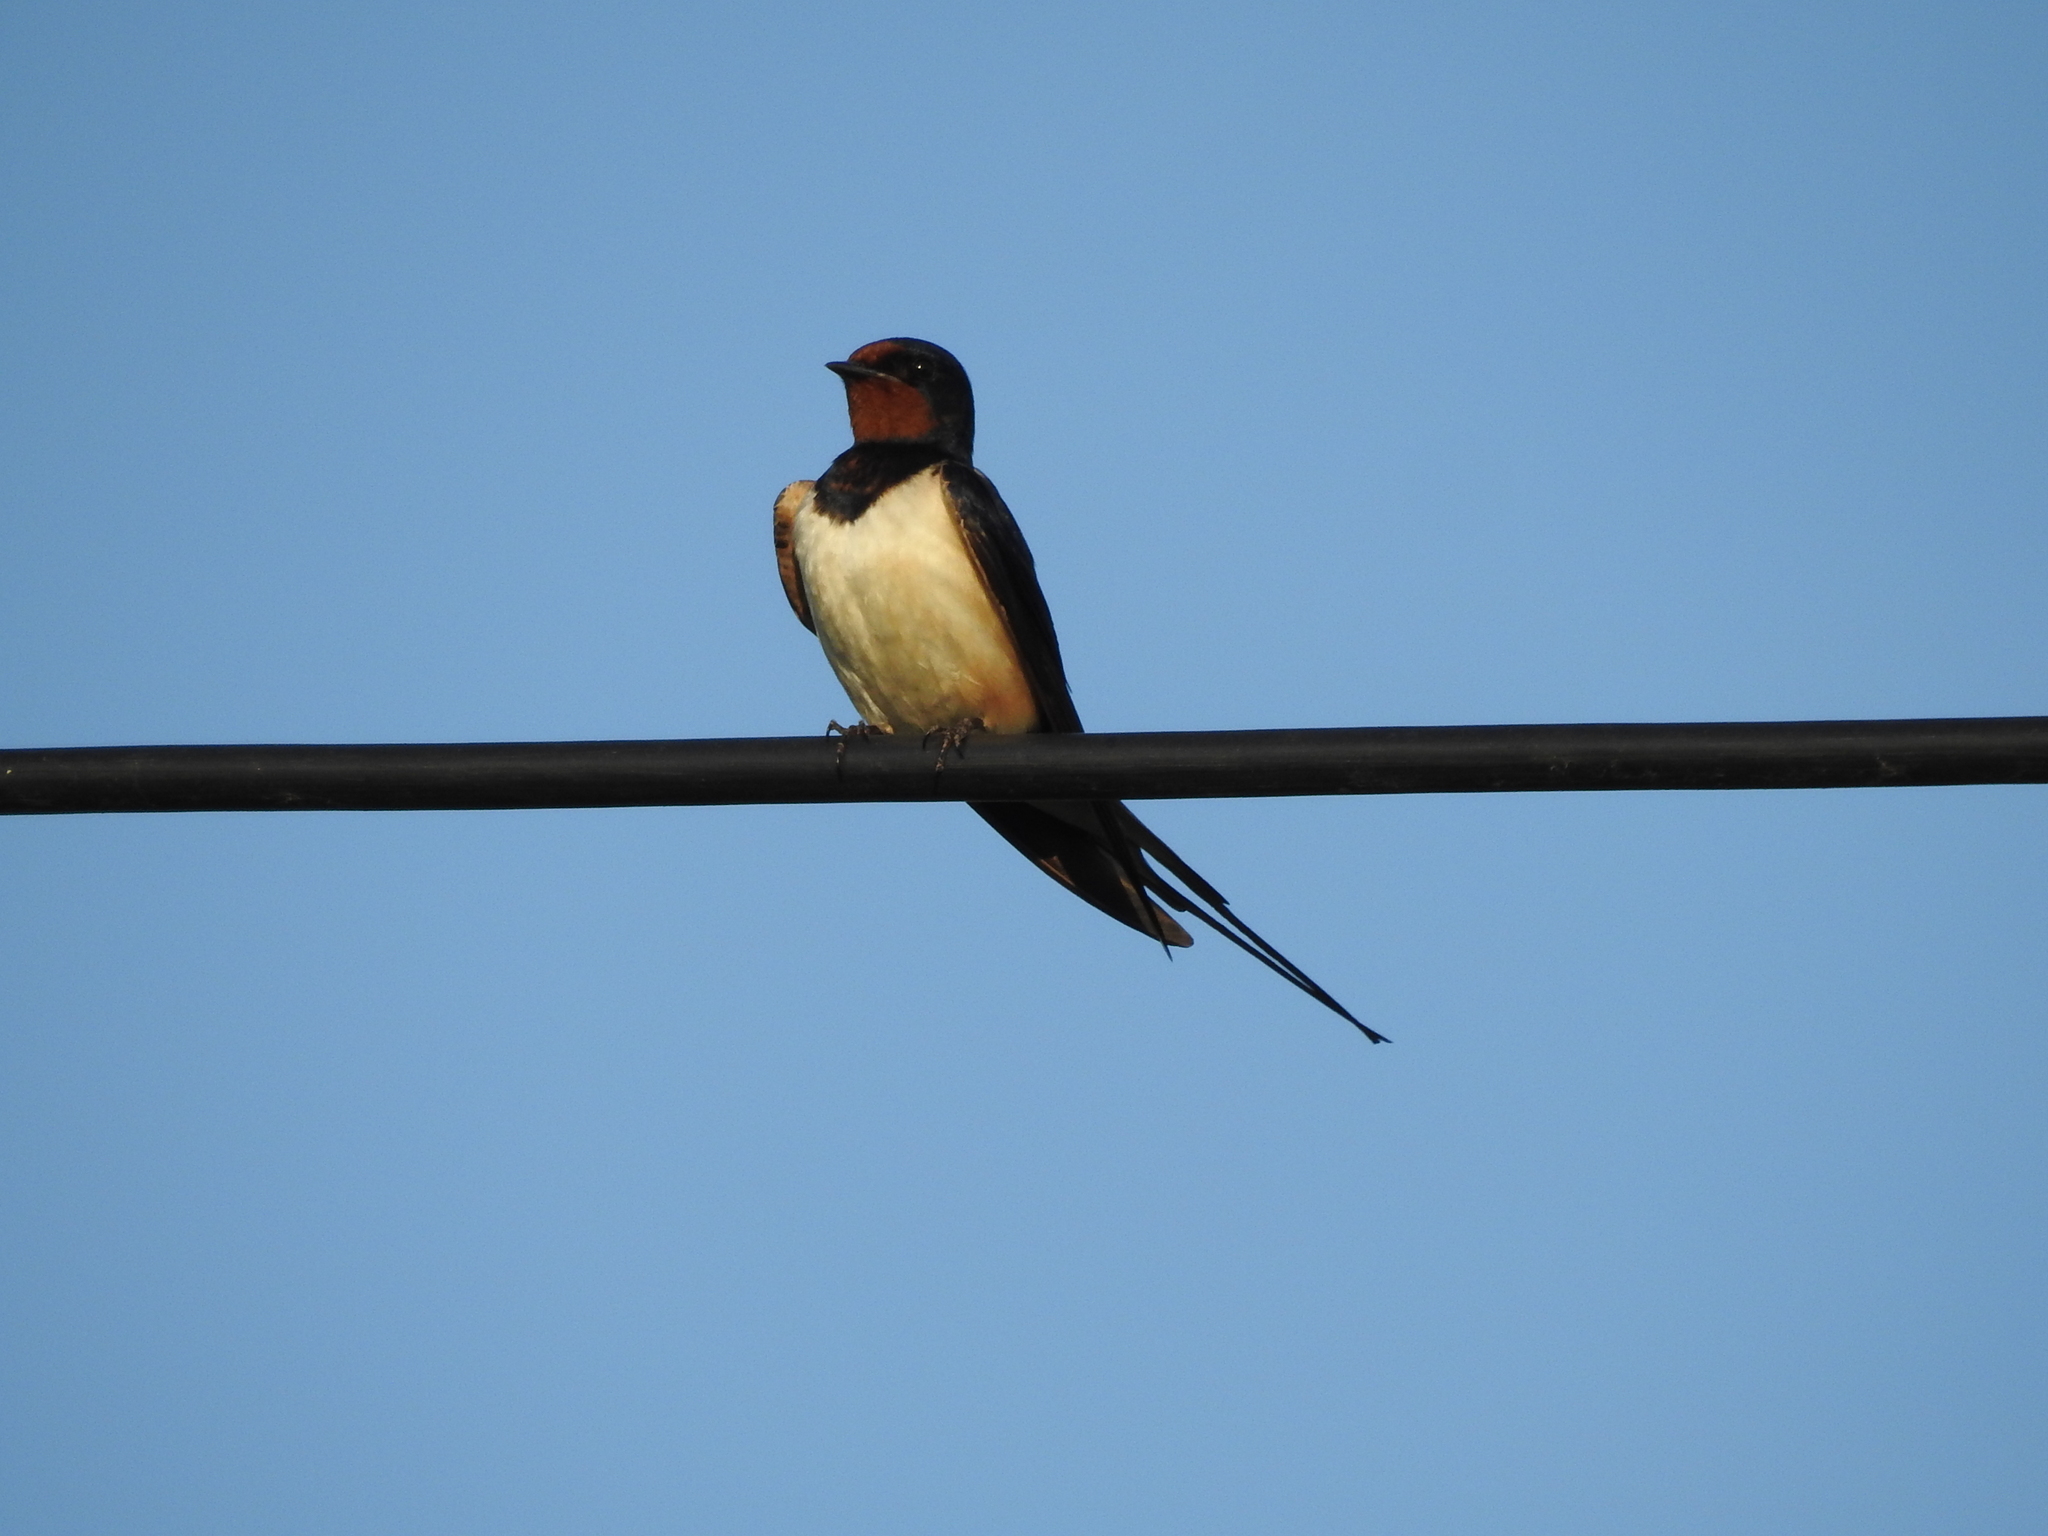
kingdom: Animalia
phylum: Chordata
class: Aves
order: Passeriformes
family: Hirundinidae
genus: Hirundo
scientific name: Hirundo rustica
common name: Barn swallow
